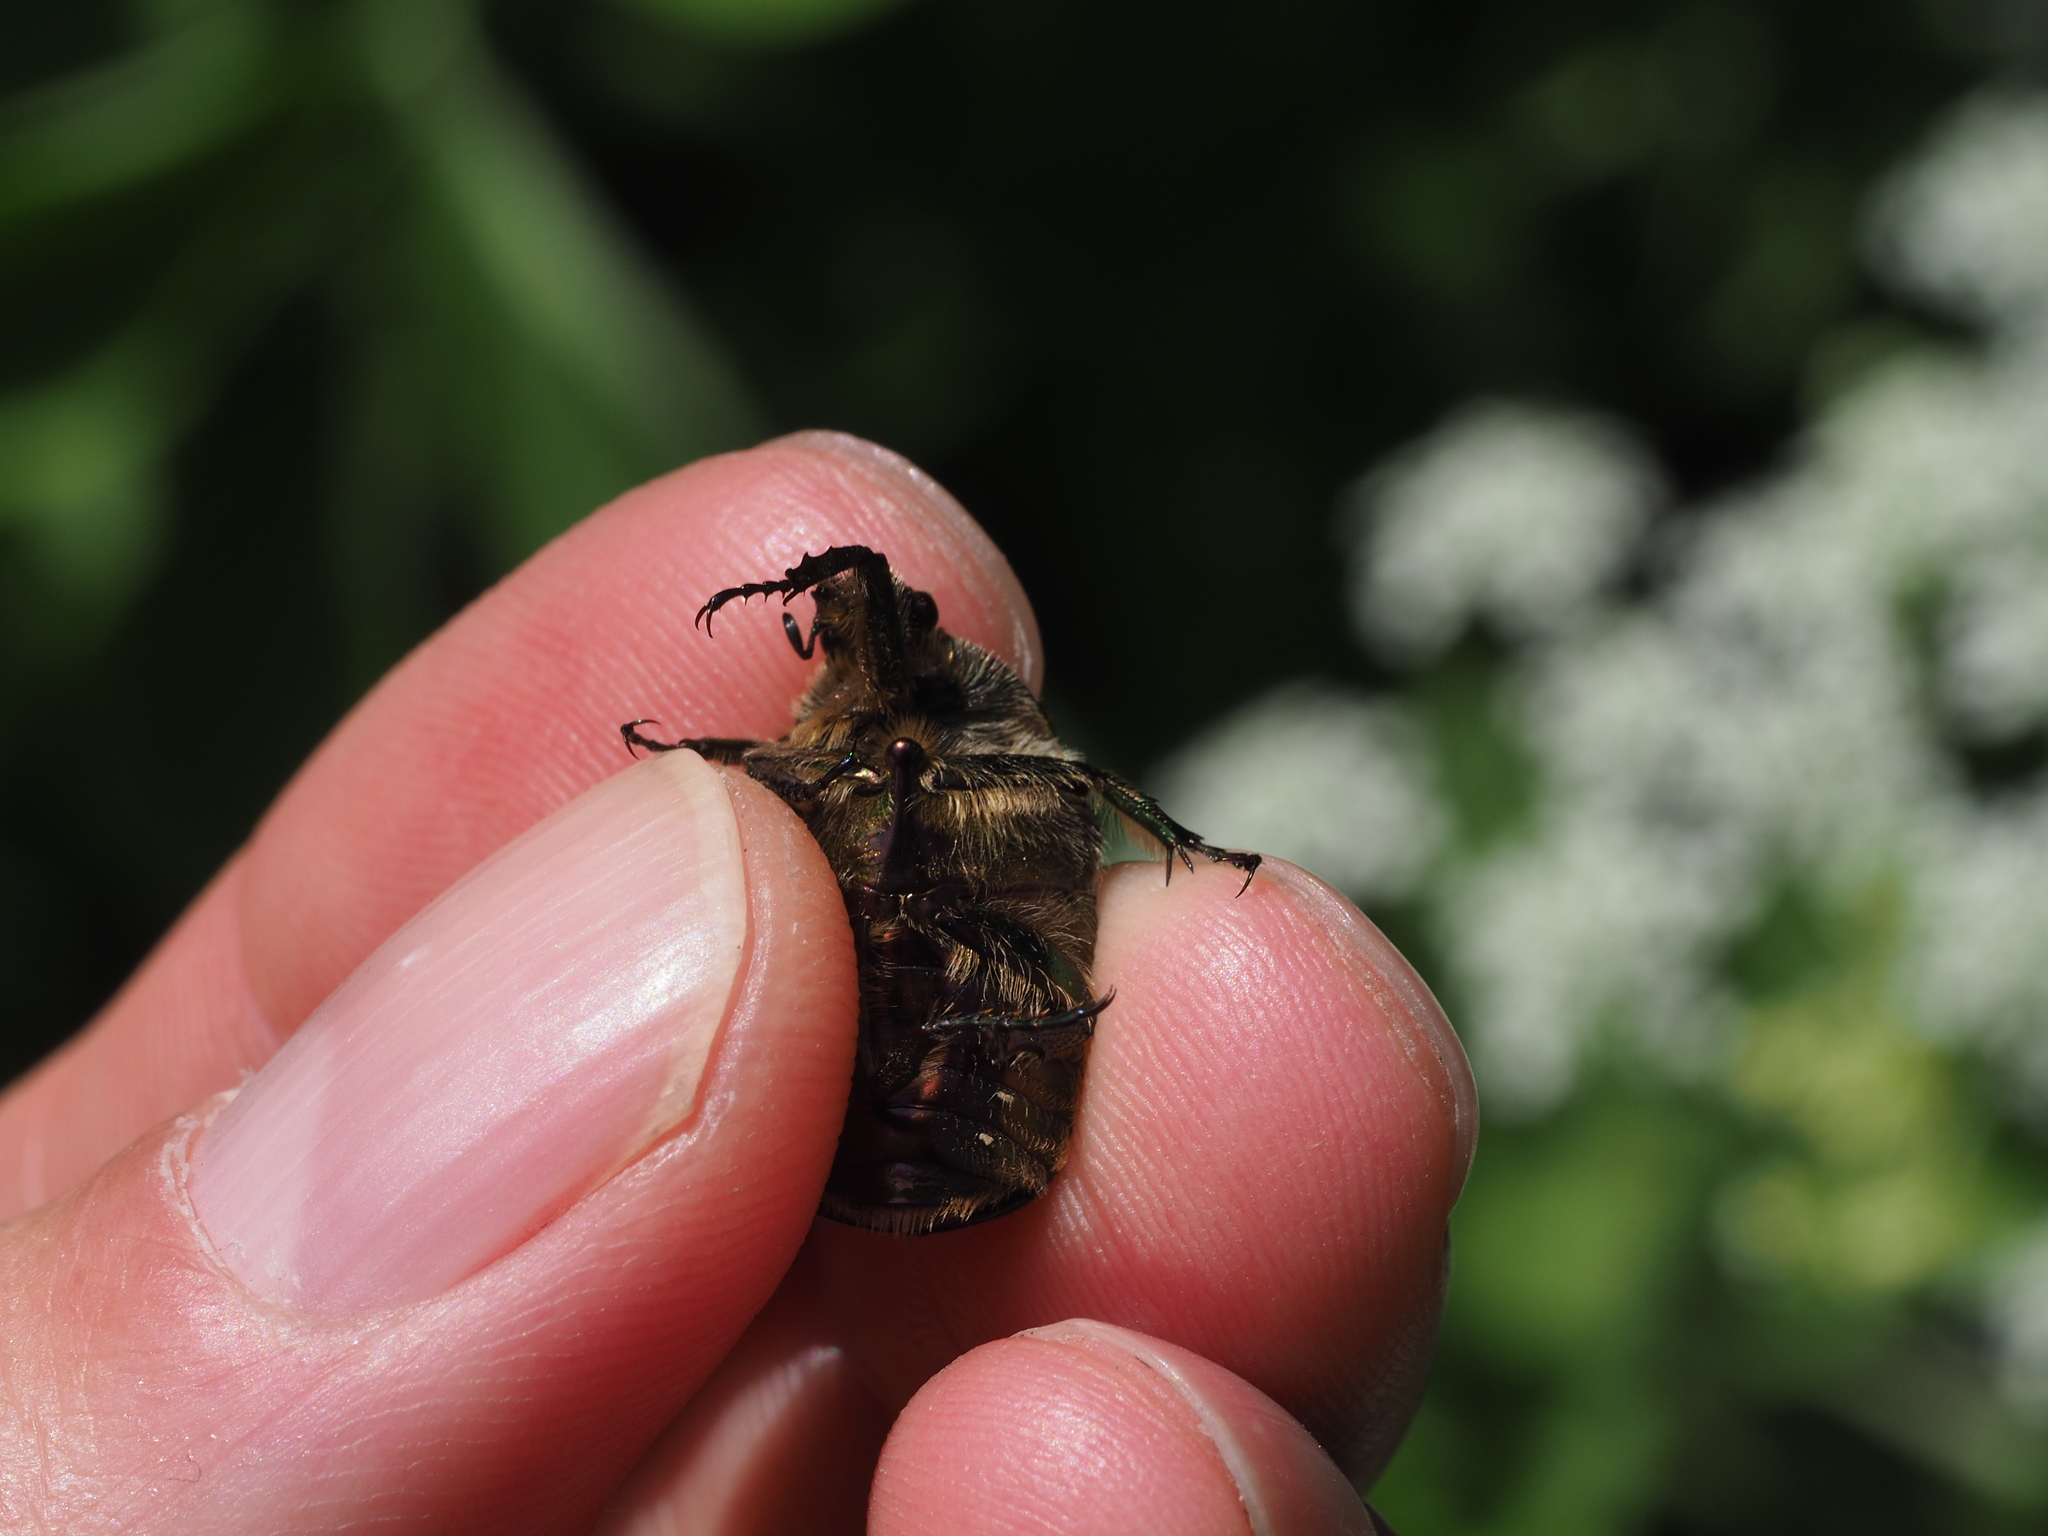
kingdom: Animalia
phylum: Arthropoda
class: Insecta
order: Coleoptera
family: Scarabaeidae
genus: Cetonia
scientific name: Cetonia aurata
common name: Rose chafer
